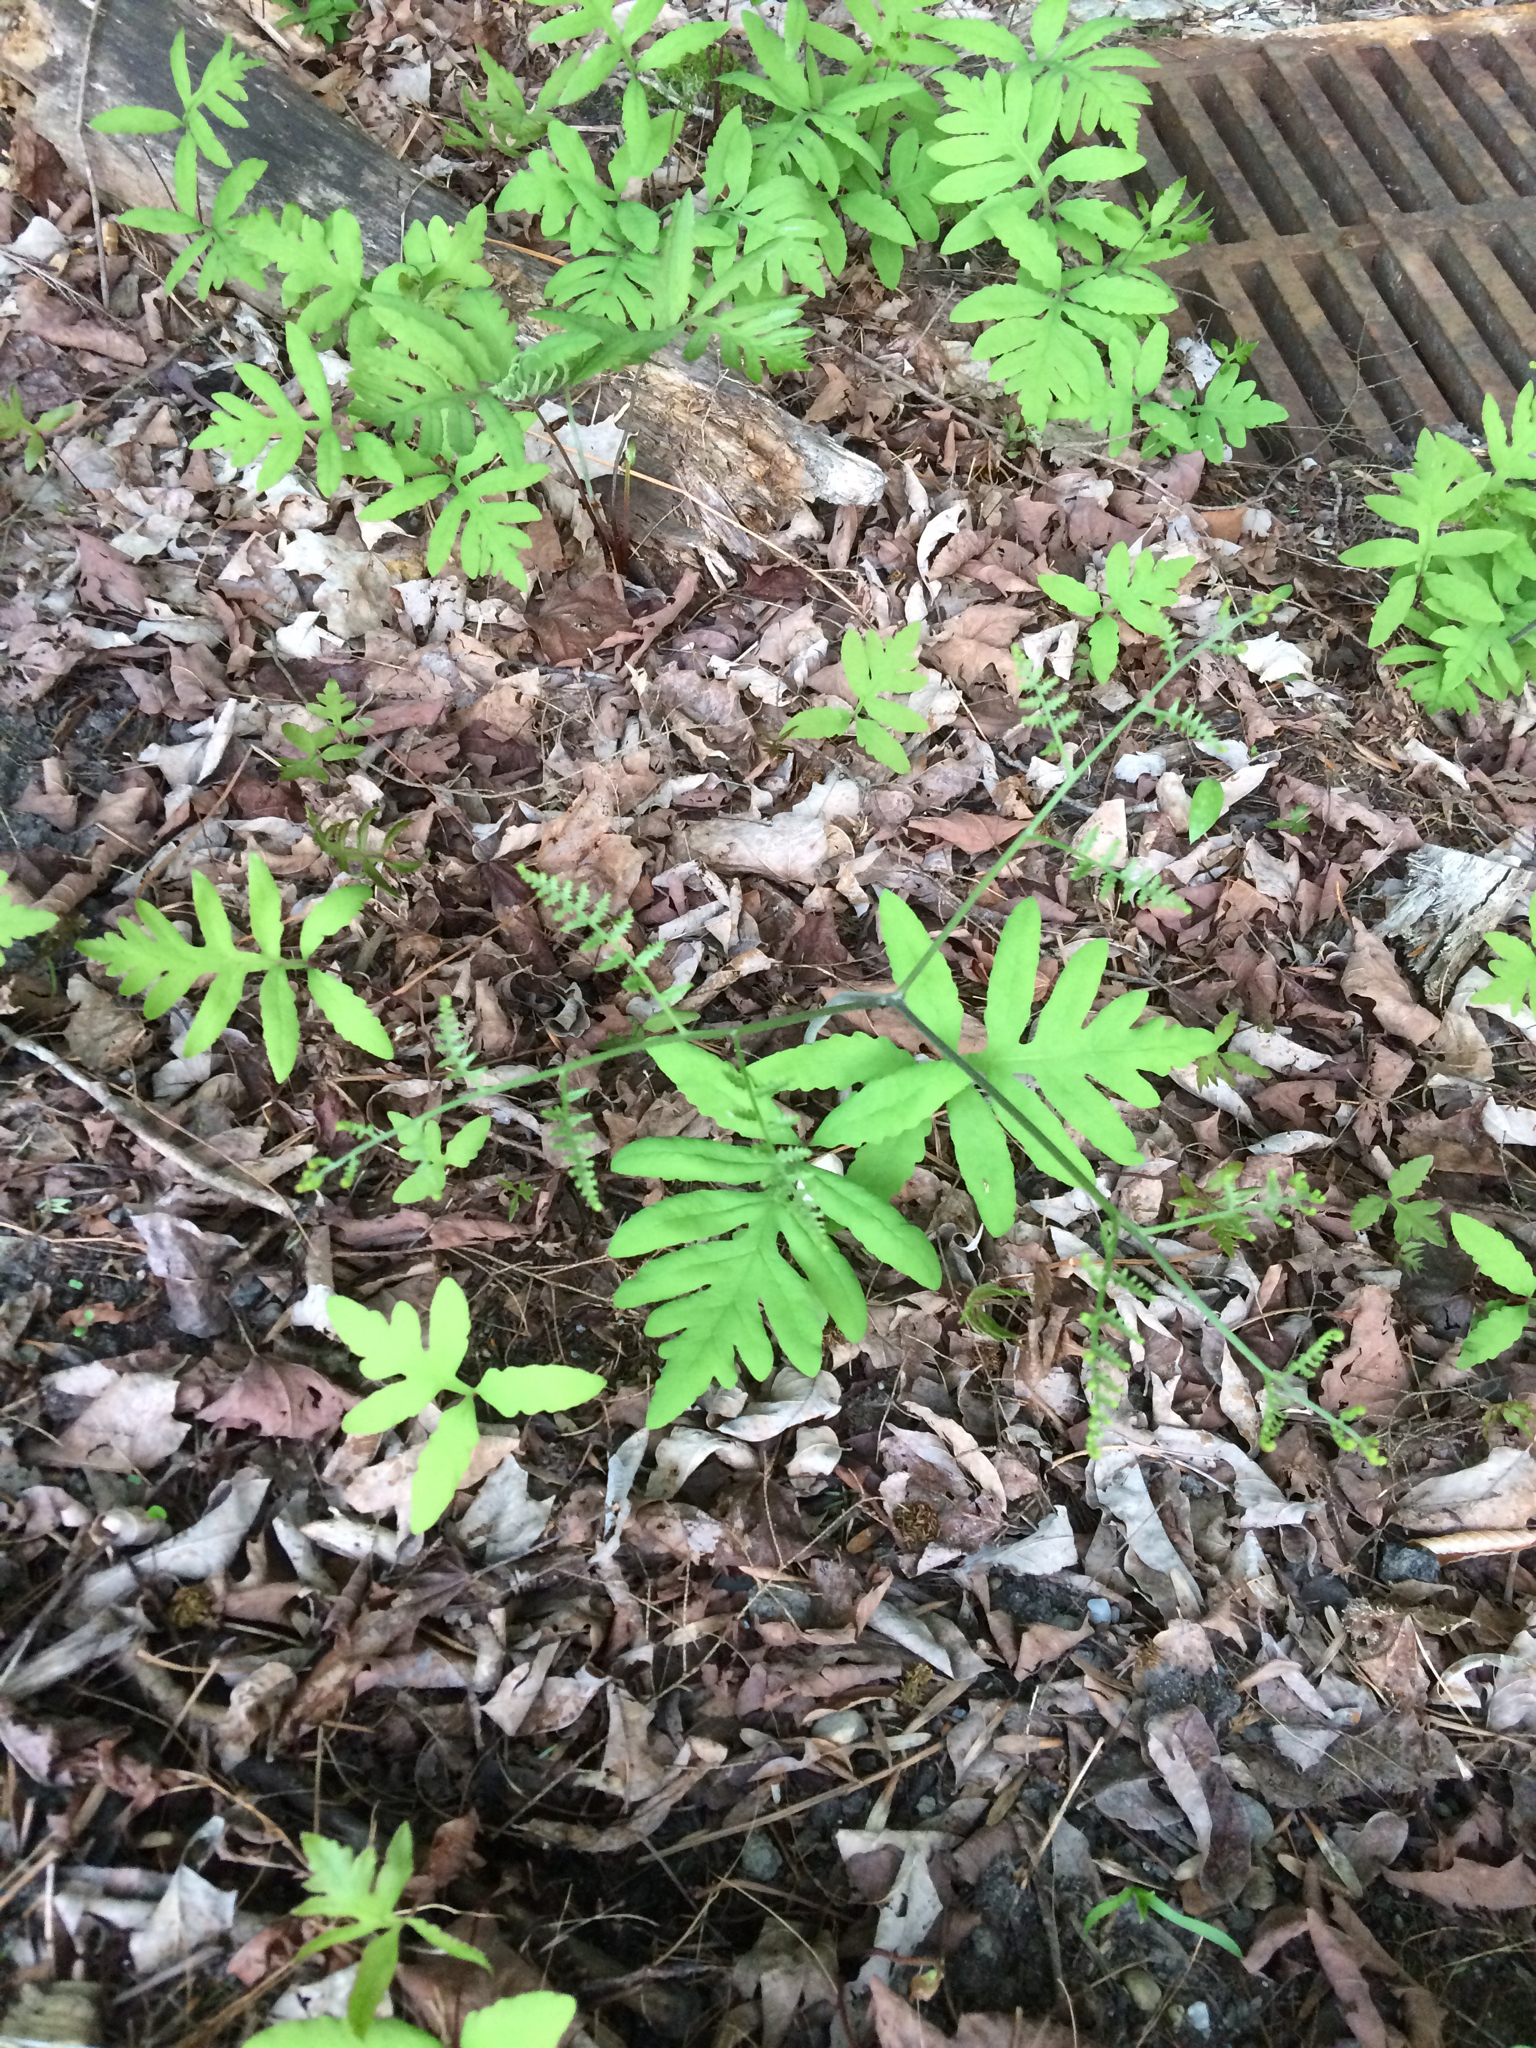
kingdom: Plantae
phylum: Tracheophyta
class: Polypodiopsida
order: Polypodiales
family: Dennstaedtiaceae
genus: Pteridium
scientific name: Pteridium aquilinum
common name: Bracken
